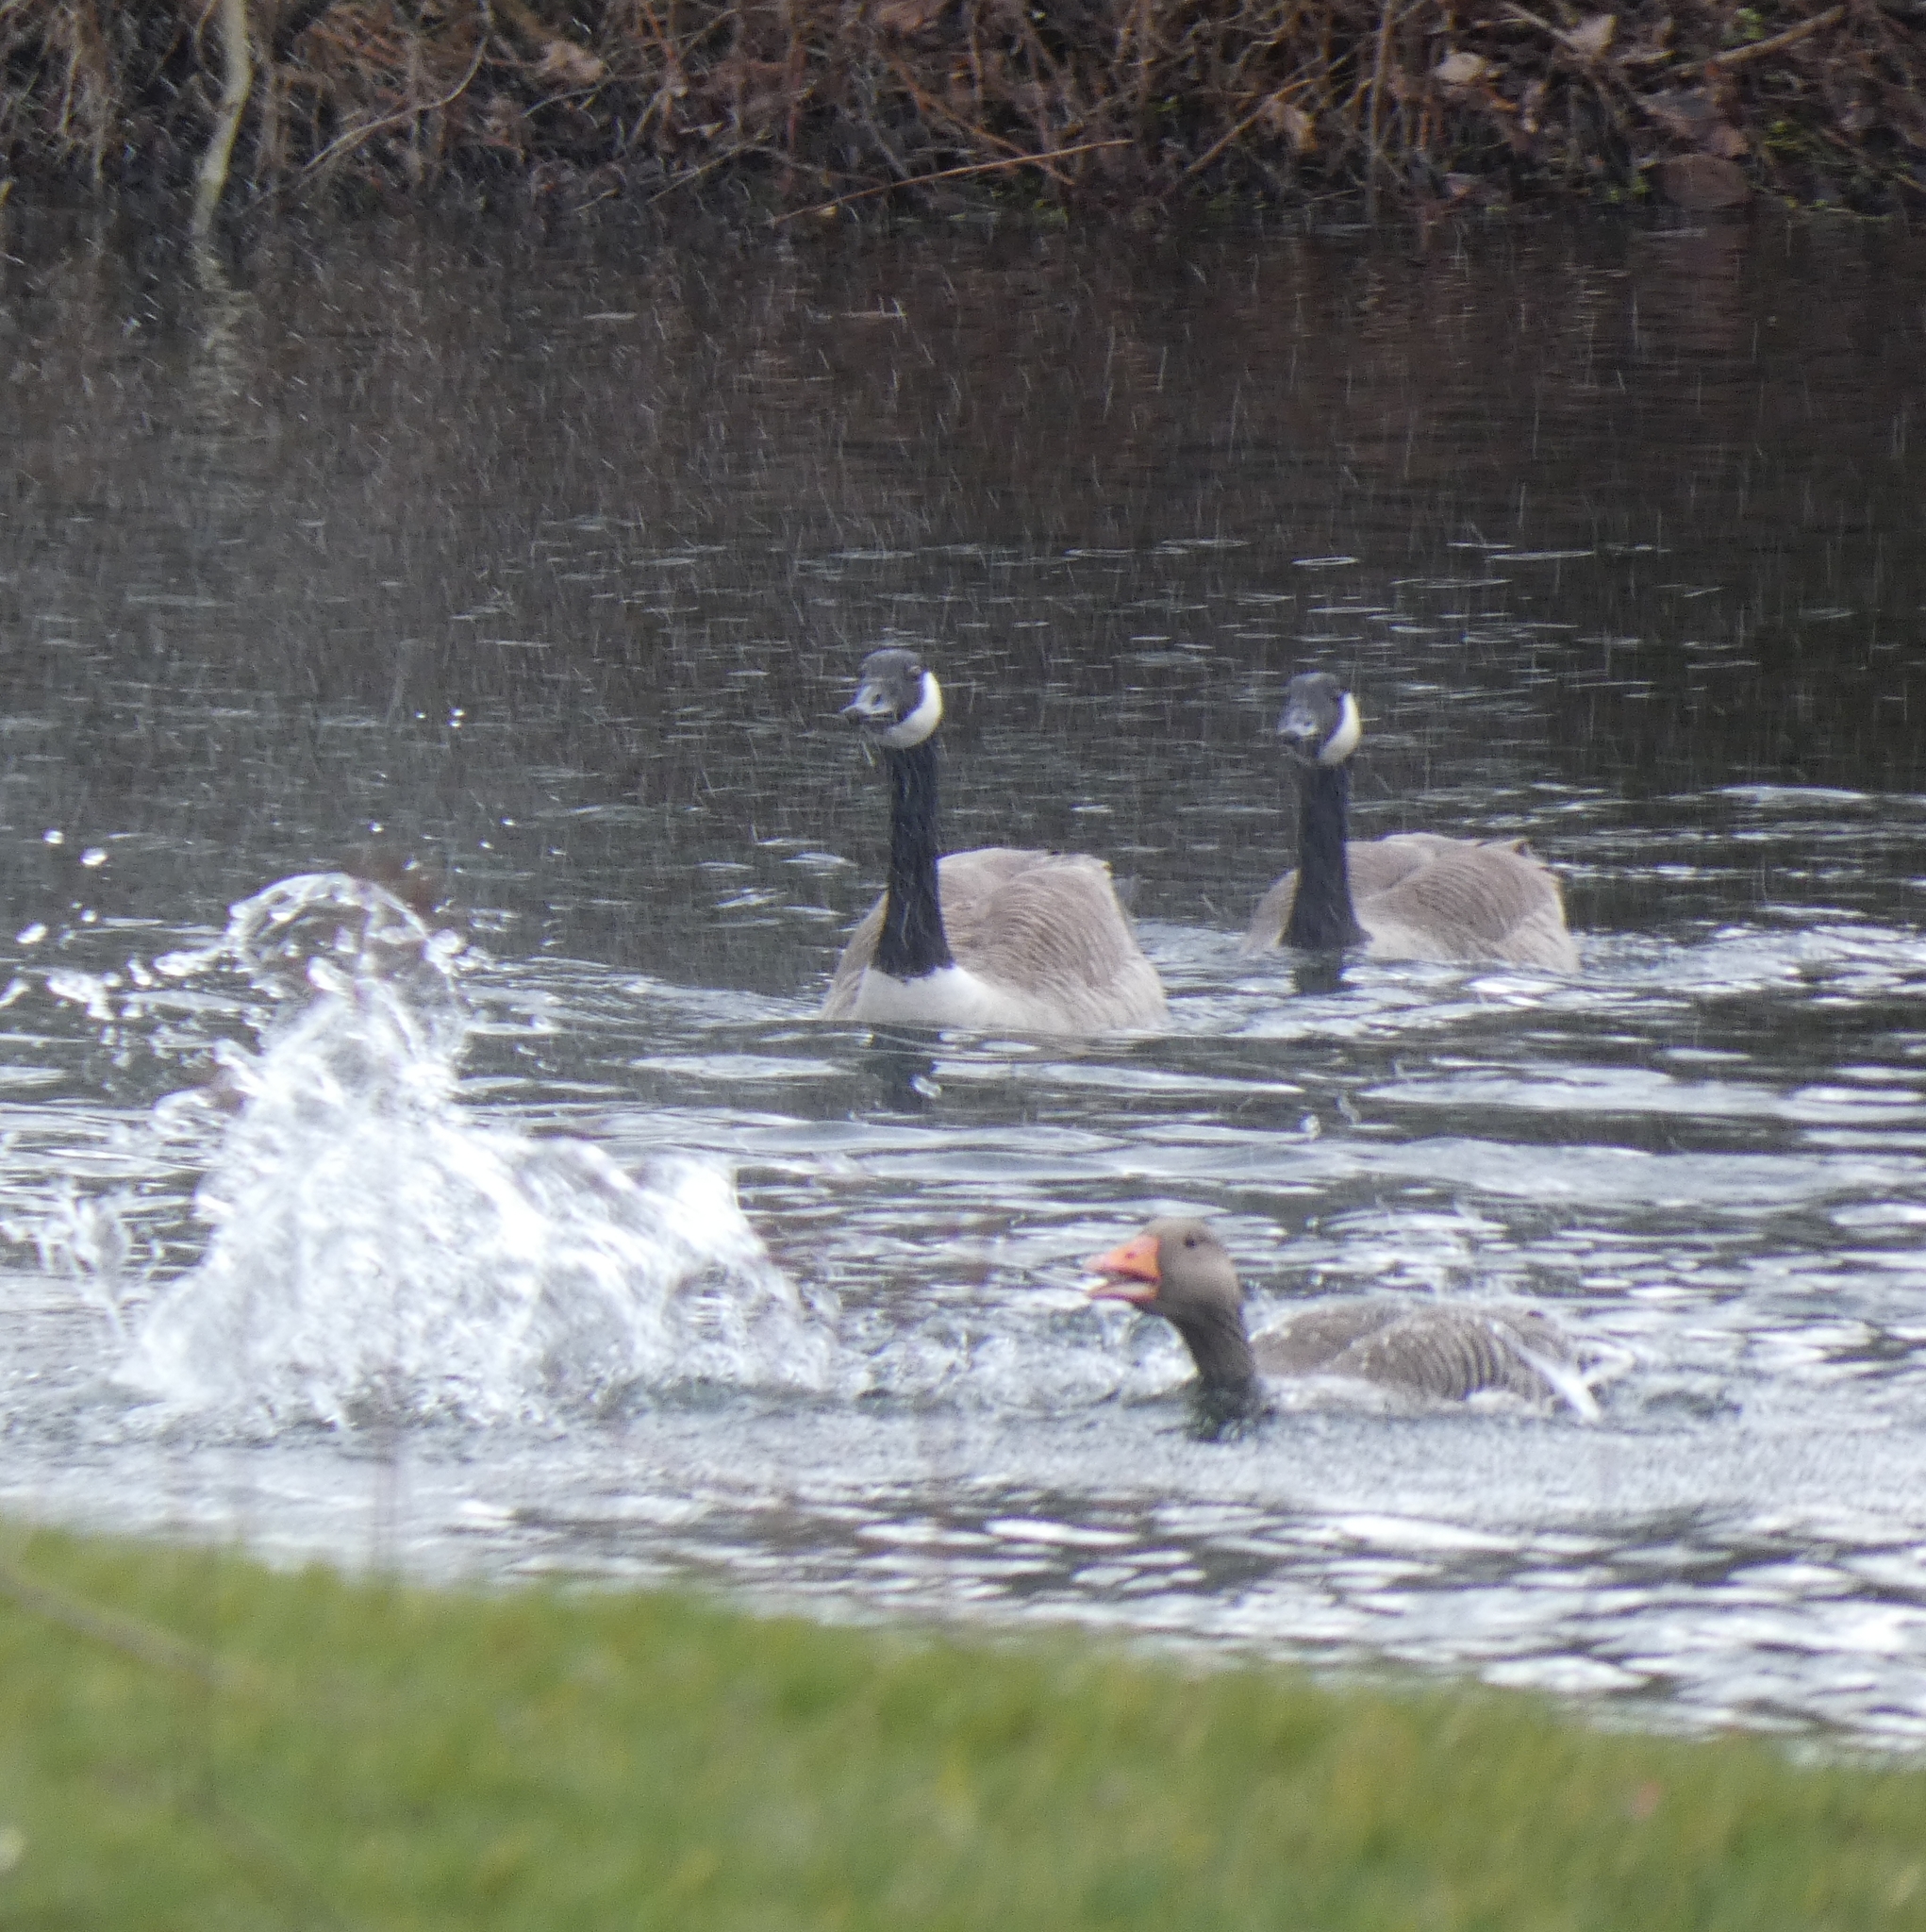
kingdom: Animalia
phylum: Chordata
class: Aves
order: Anseriformes
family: Anatidae
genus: Branta
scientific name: Branta canadensis
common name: Canada goose
